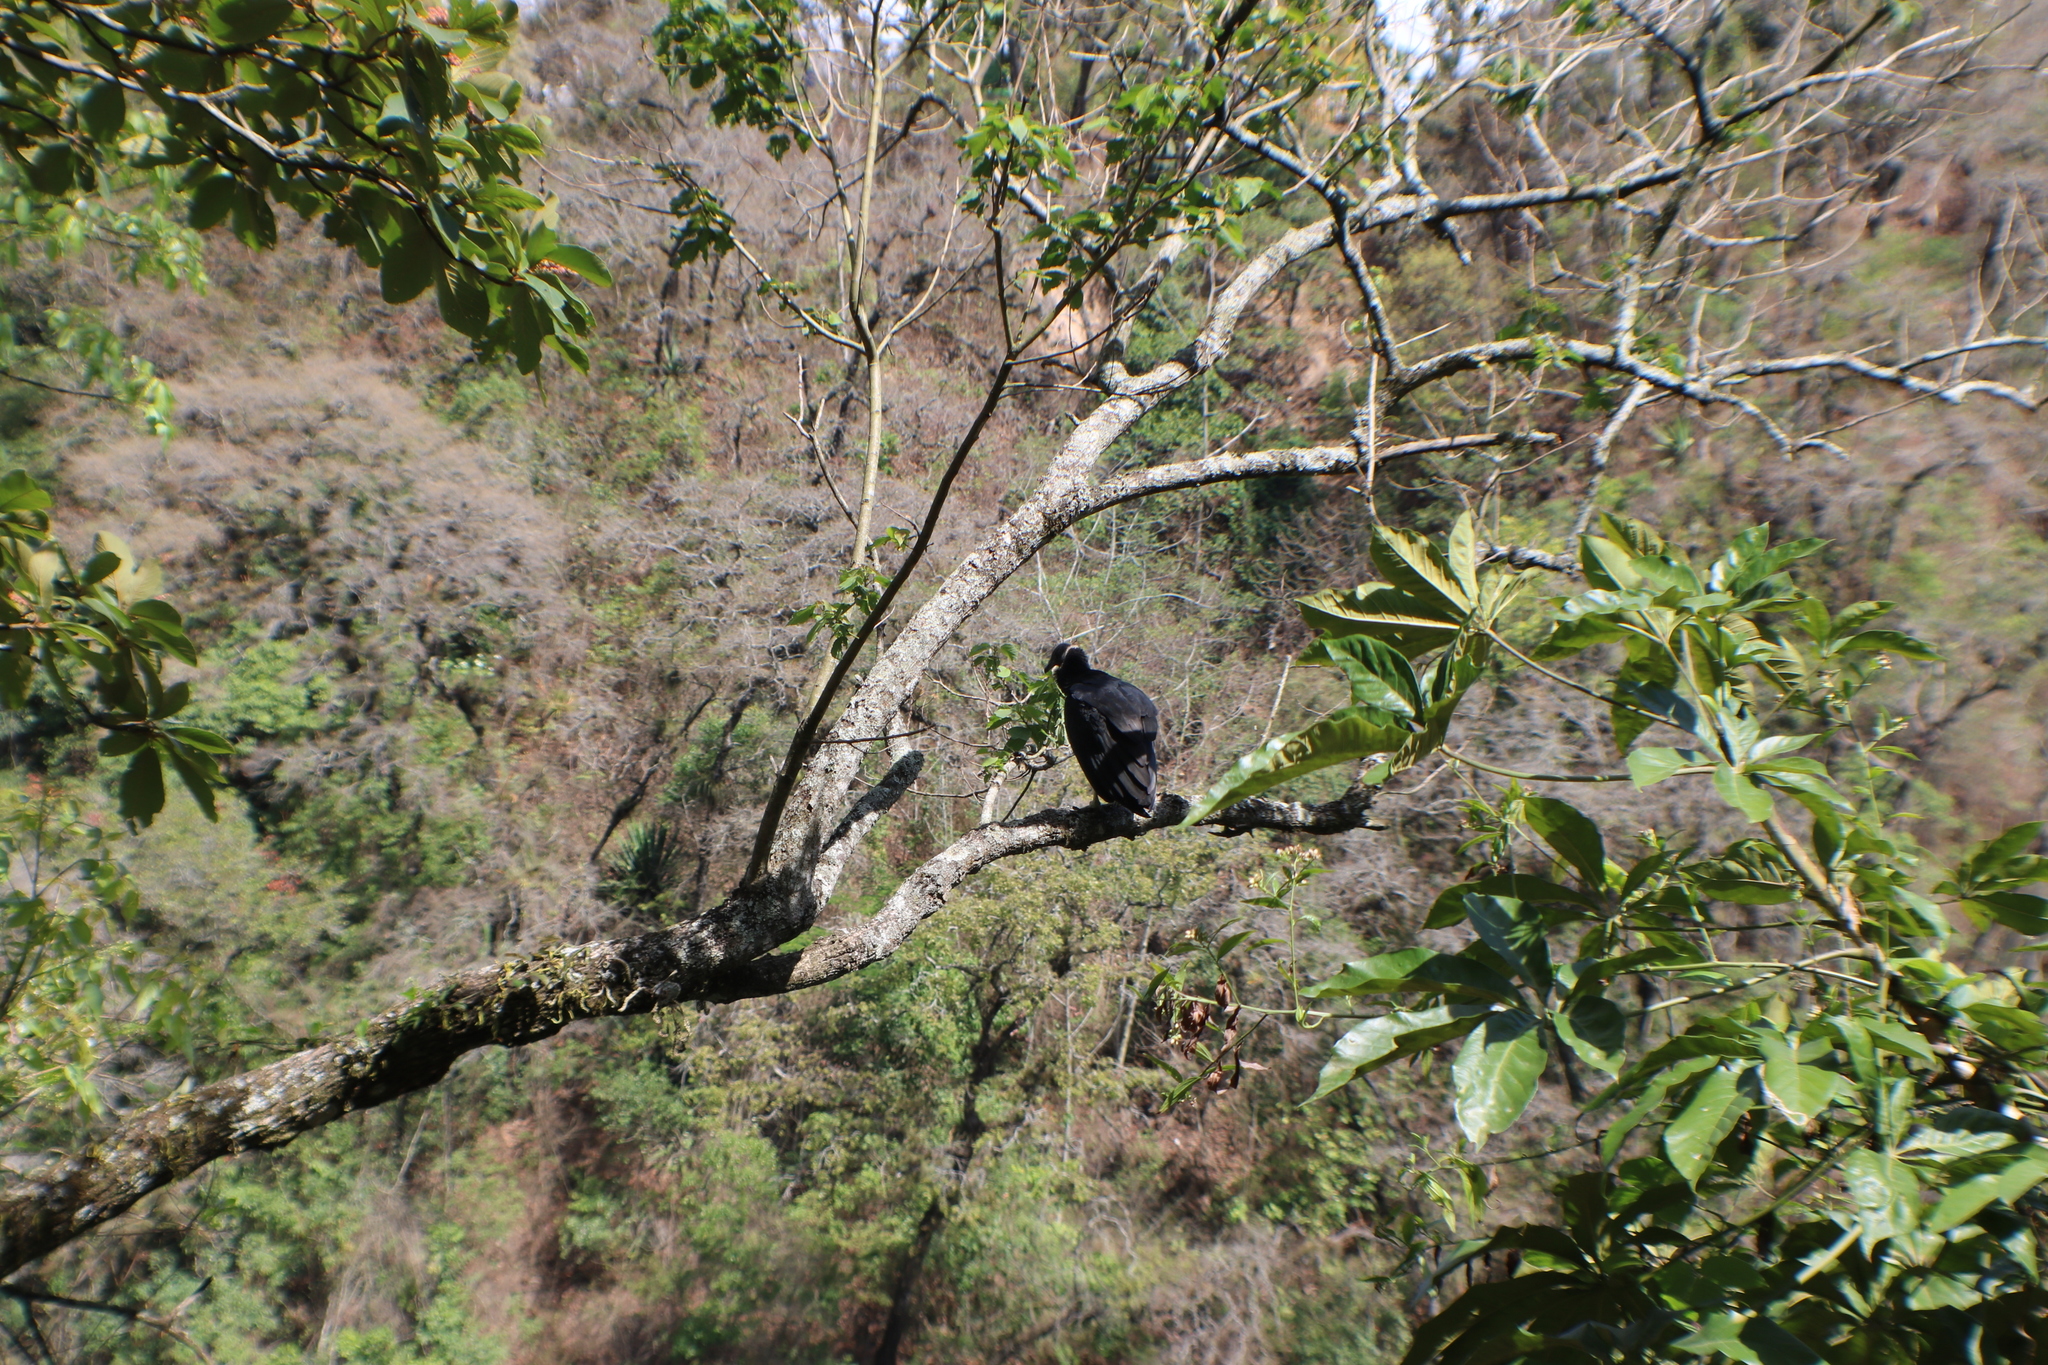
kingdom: Animalia
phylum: Chordata
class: Aves
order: Accipitriformes
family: Cathartidae
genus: Coragyps
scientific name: Coragyps atratus
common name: Black vulture
